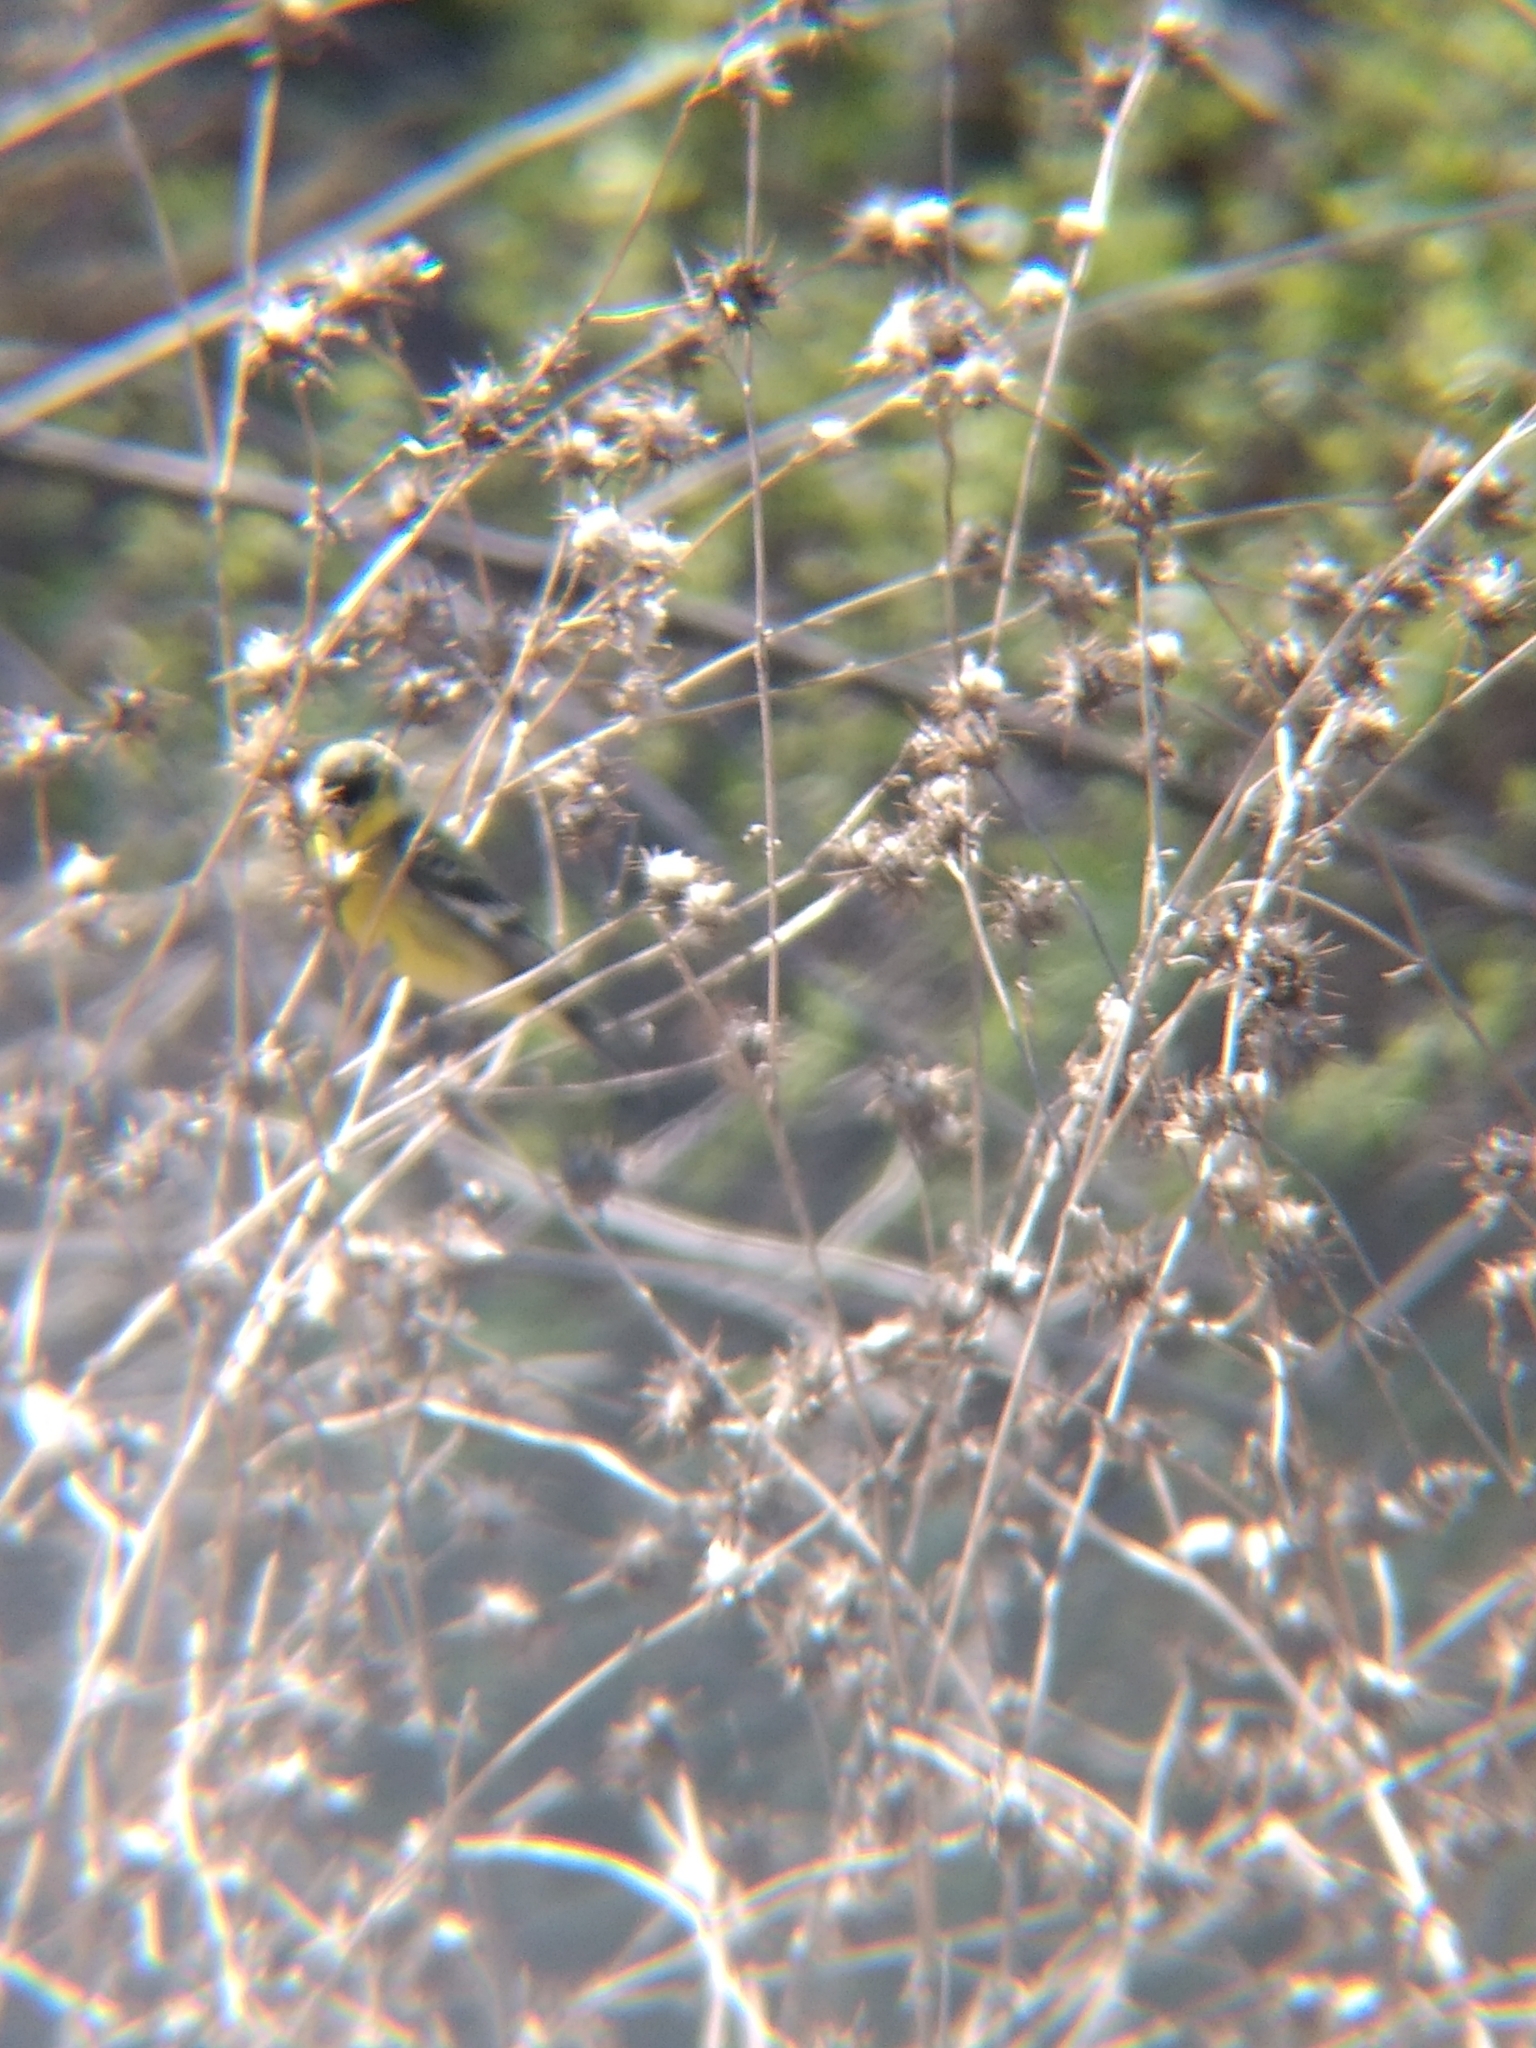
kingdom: Animalia
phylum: Chordata
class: Aves
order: Passeriformes
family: Fringillidae
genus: Spinus
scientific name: Spinus psaltria
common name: Lesser goldfinch
